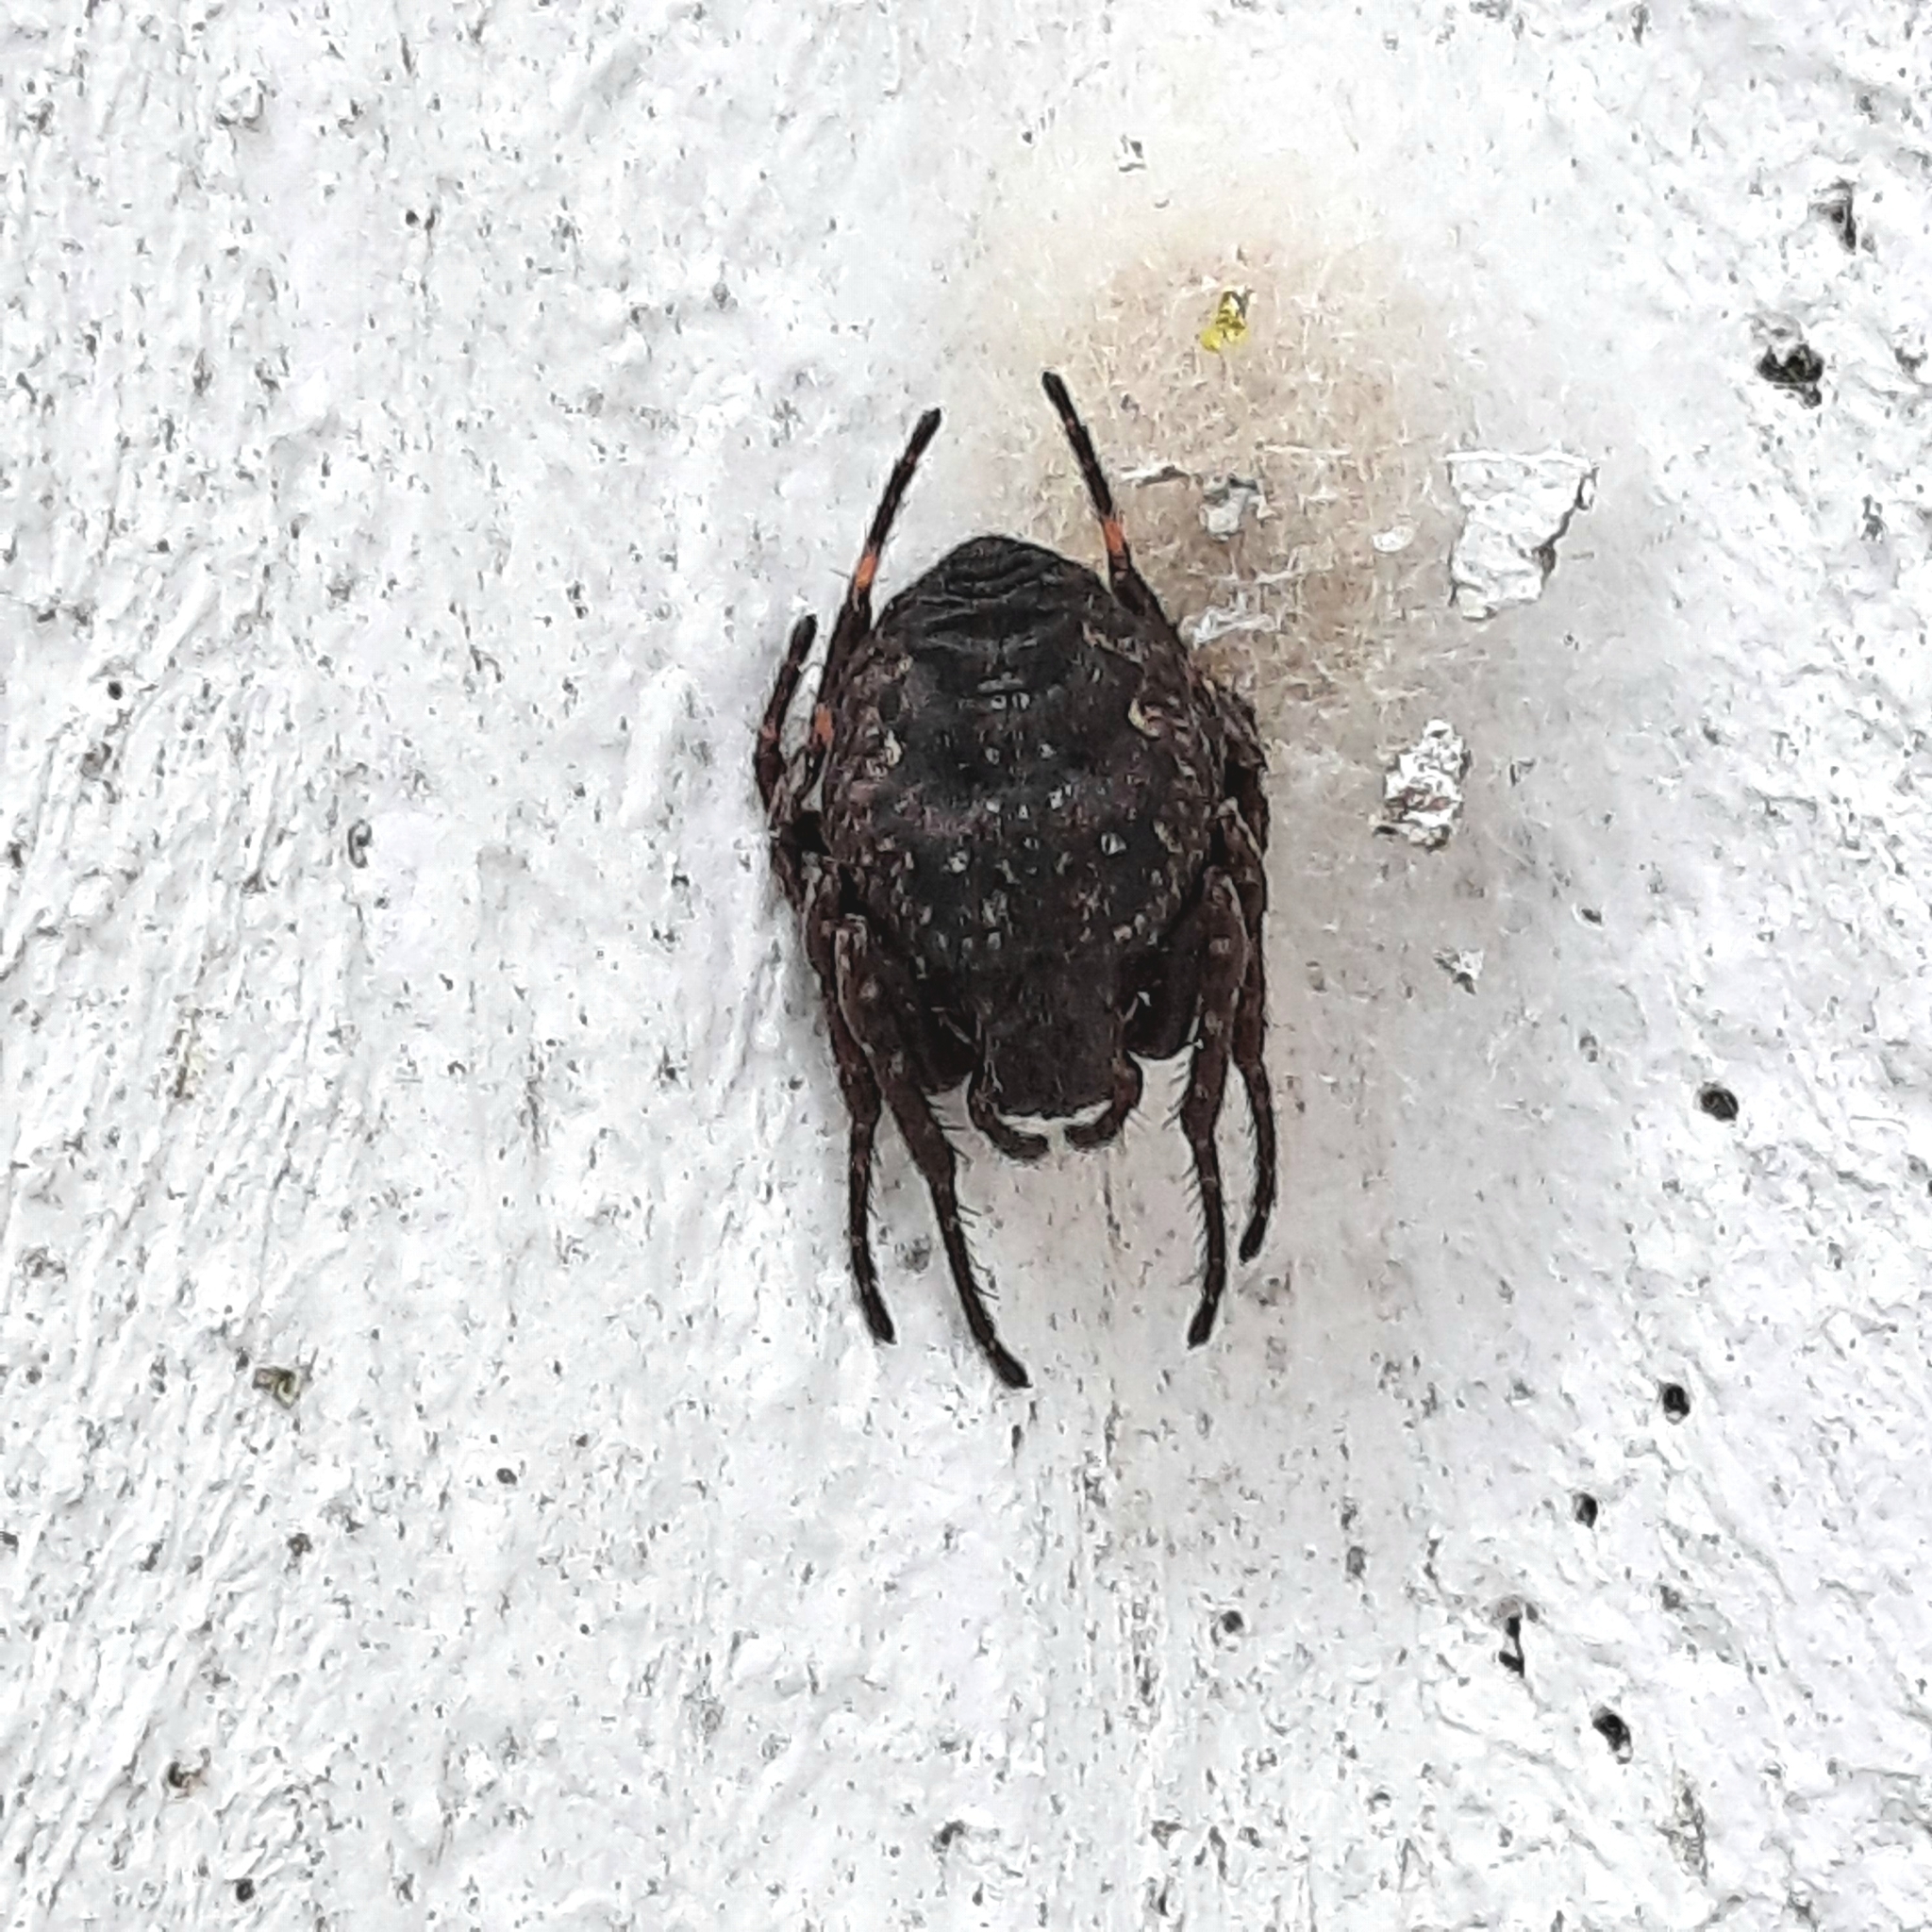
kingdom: Animalia
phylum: Arthropoda
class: Arachnida
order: Araneae
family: Araneidae
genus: Nuctenea
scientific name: Nuctenea umbratica
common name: Toad spider
